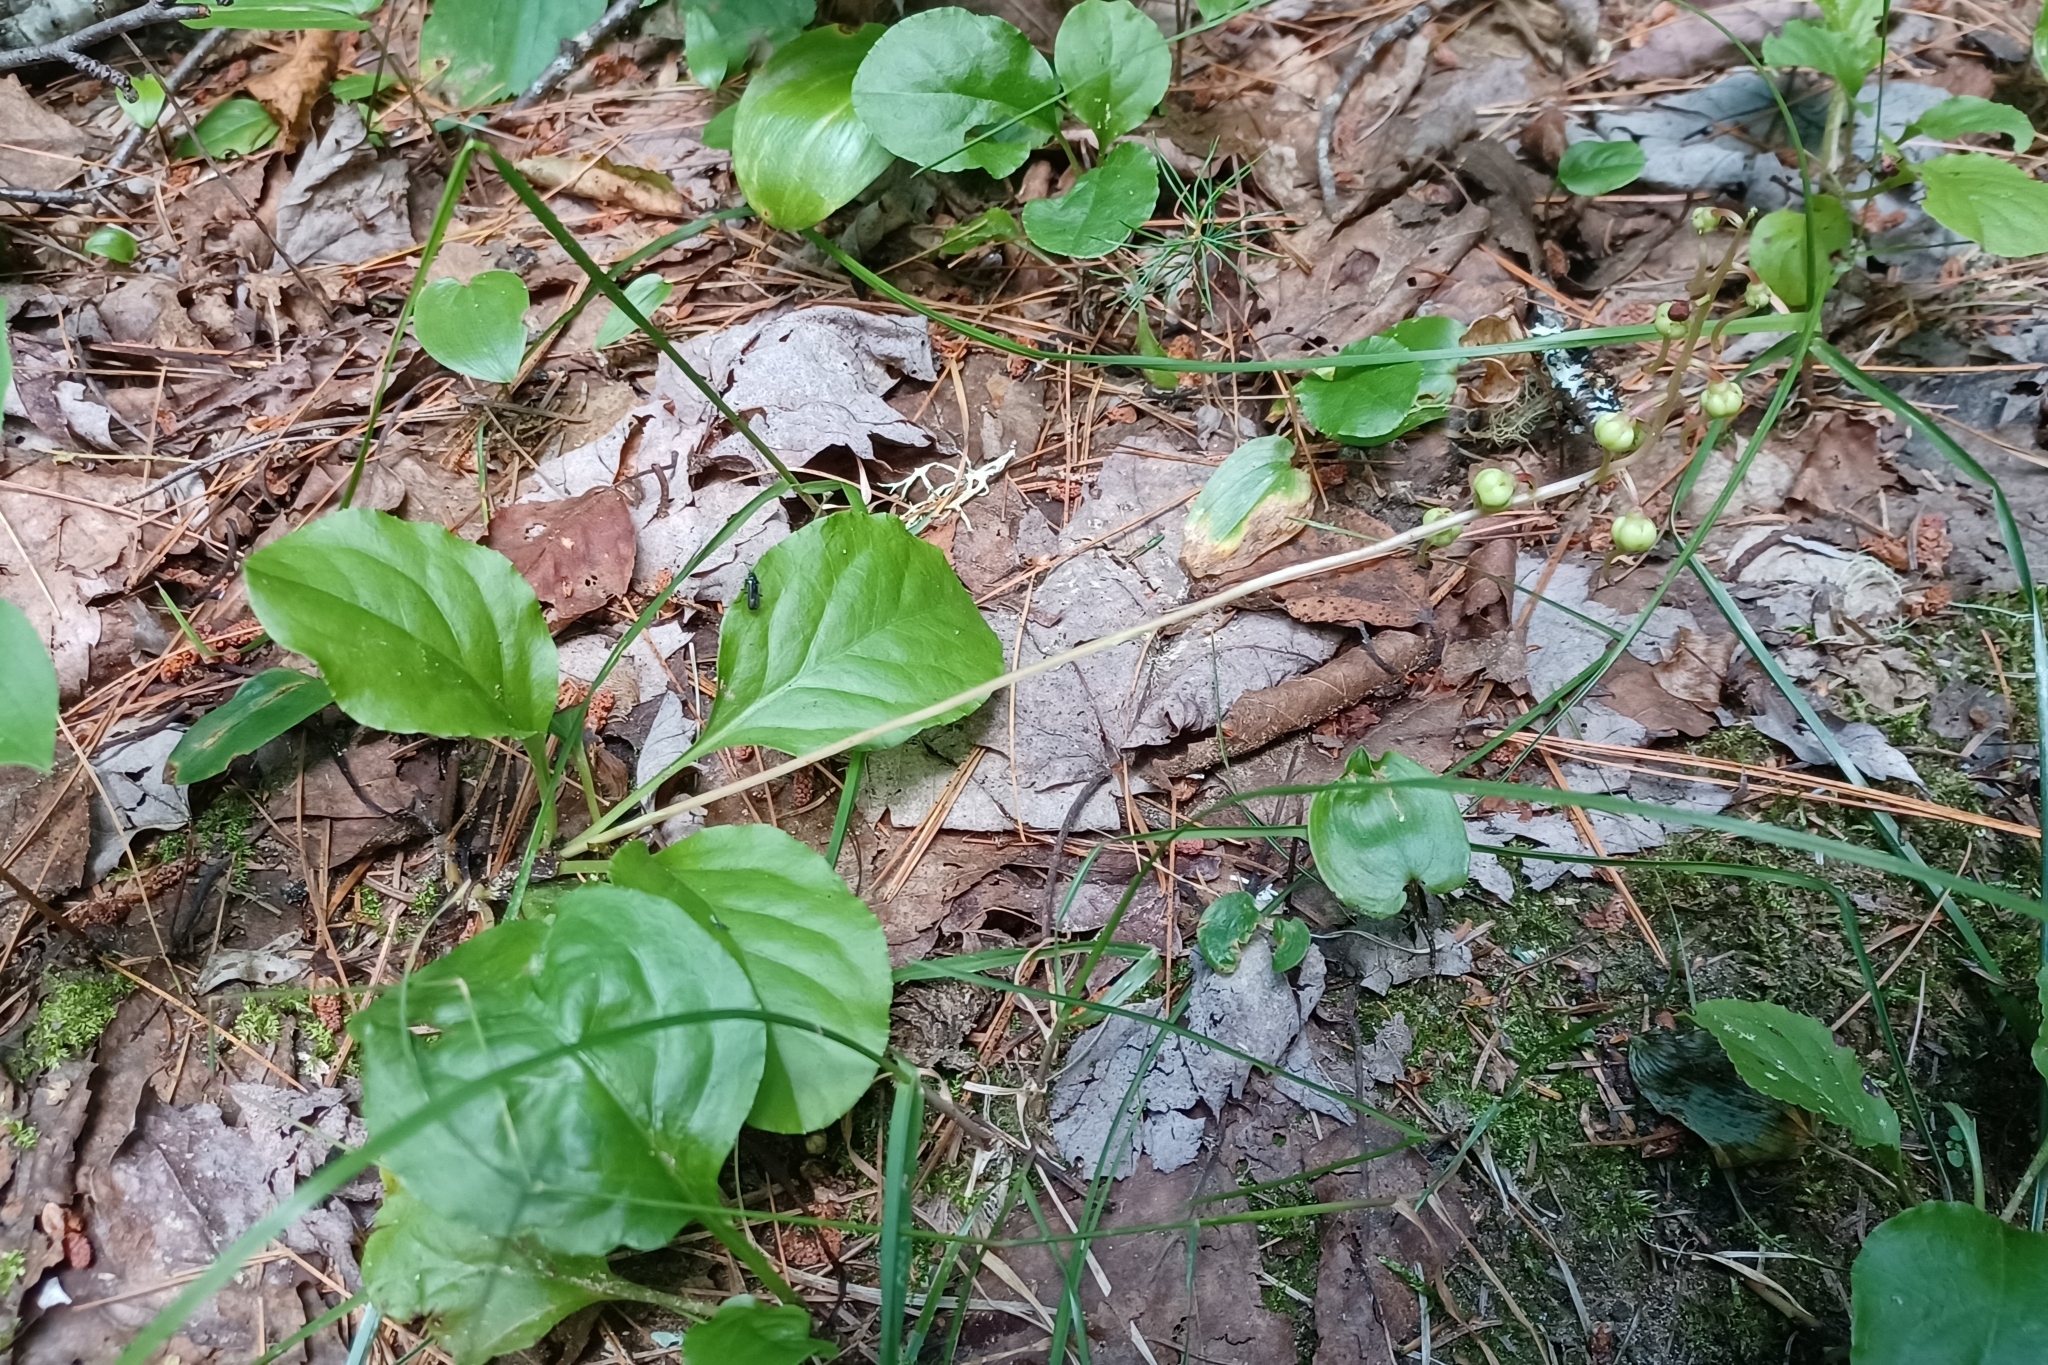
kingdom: Plantae
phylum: Tracheophyta
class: Magnoliopsida
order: Ericales
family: Ericaceae
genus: Pyrola
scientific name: Pyrola elliptica
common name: Shinleaf
